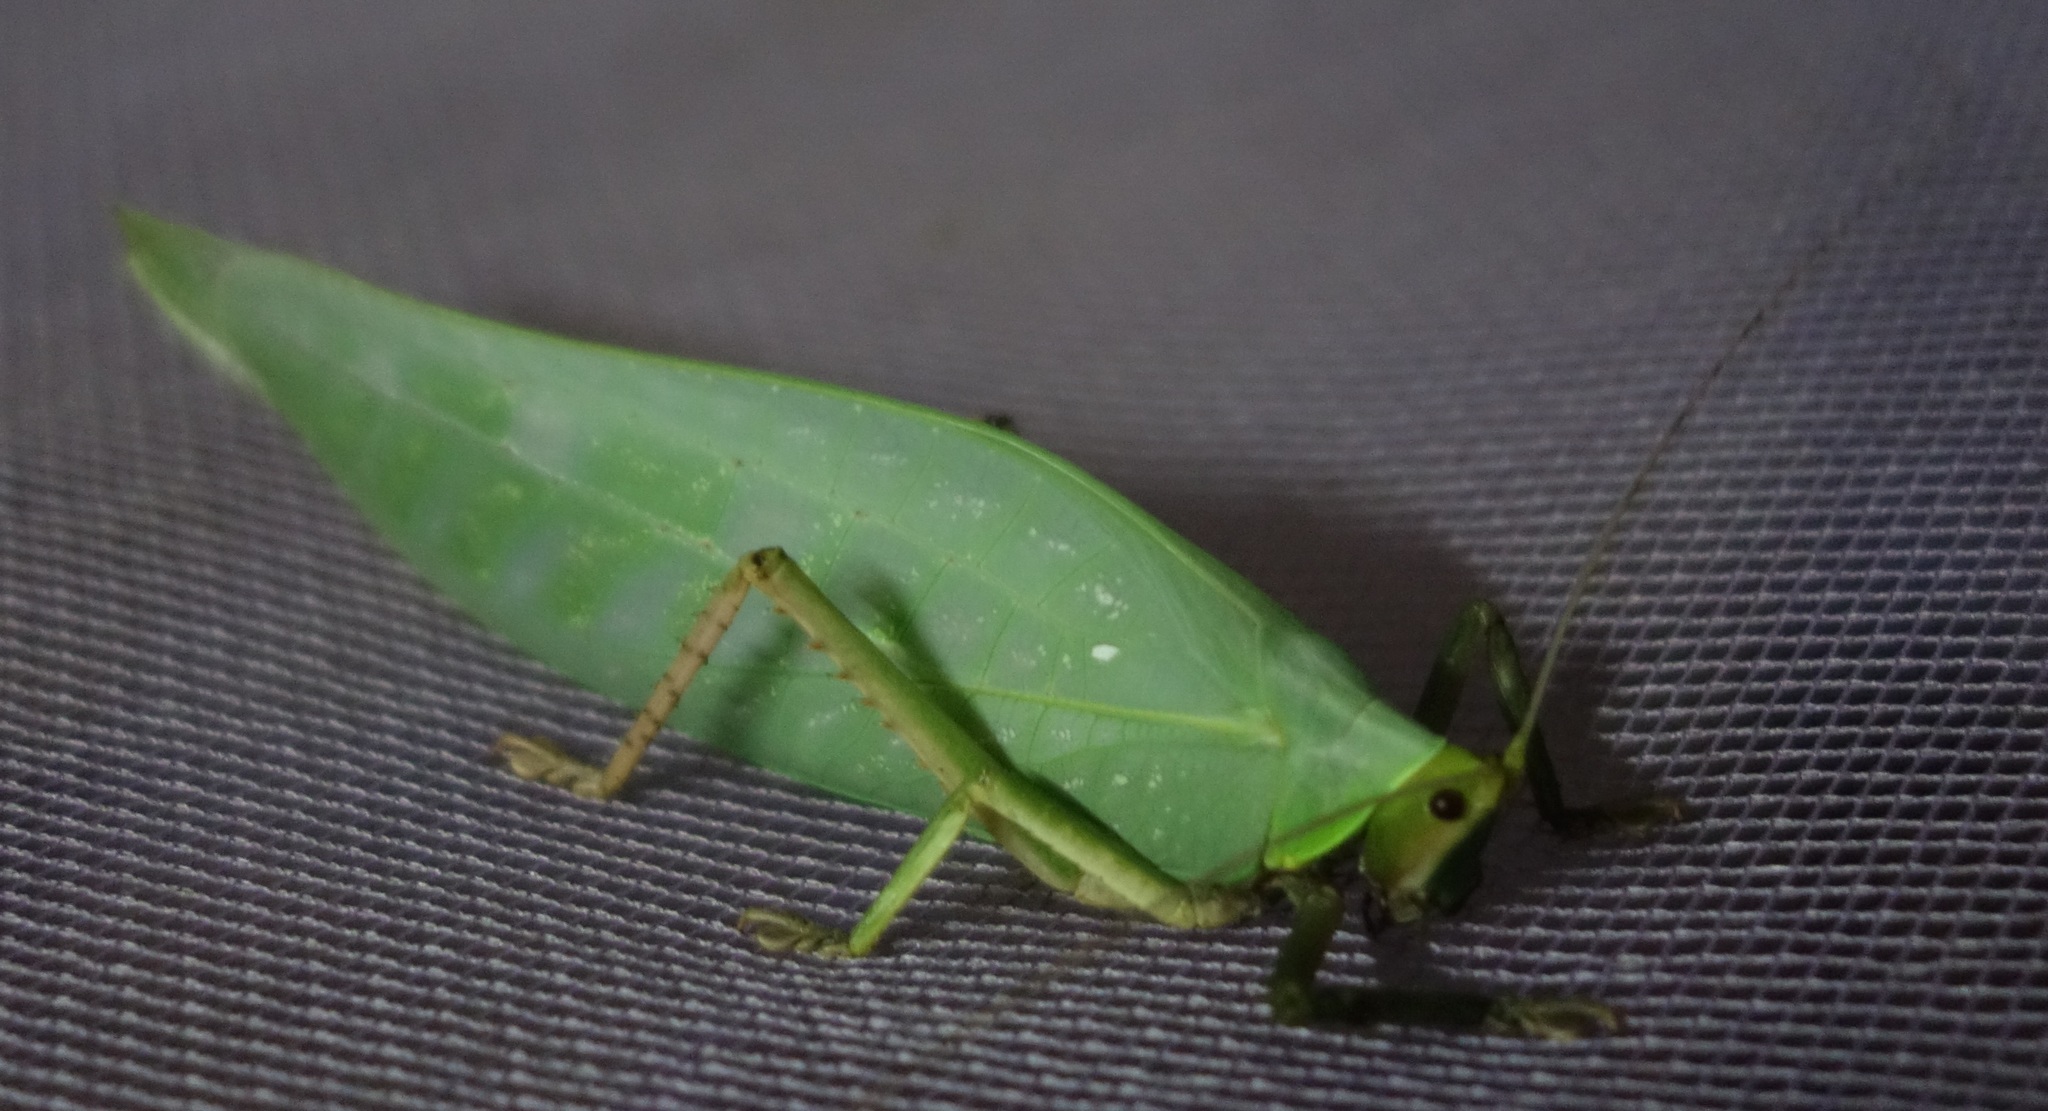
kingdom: Animalia
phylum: Arthropoda
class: Insecta
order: Orthoptera
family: Tettigoniidae
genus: Onomarchus
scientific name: Onomarchus uninotatus
